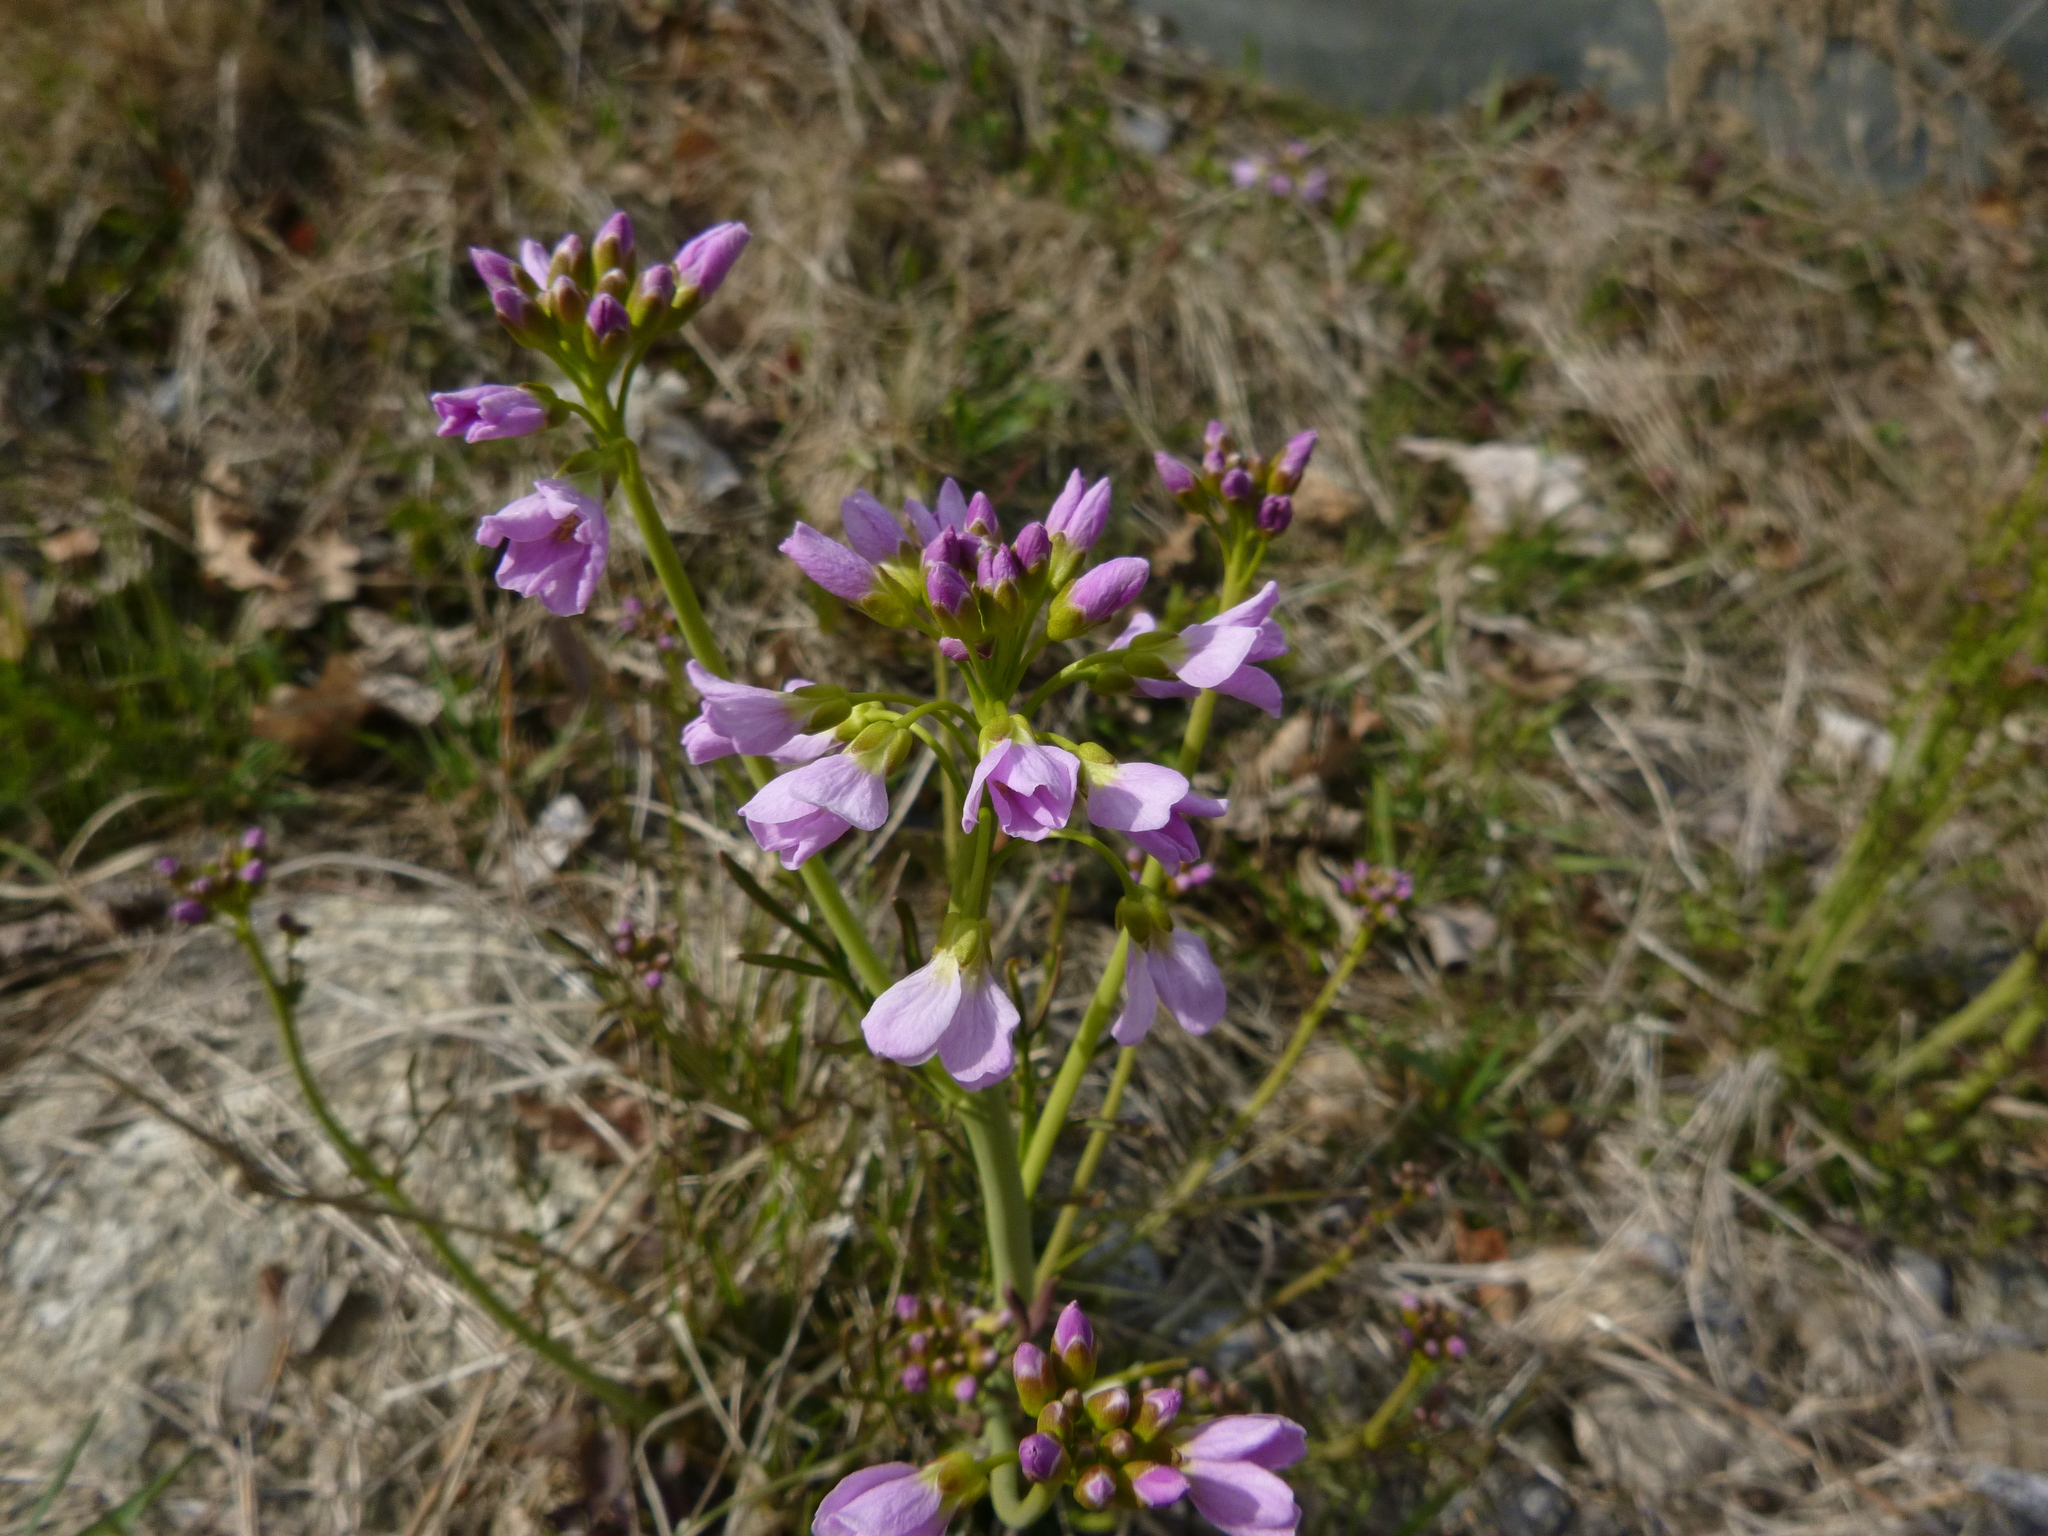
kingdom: Plantae
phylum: Tracheophyta
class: Magnoliopsida
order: Brassicales
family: Brassicaceae
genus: Cardamine
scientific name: Cardamine pratensis
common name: Cuckoo flower
